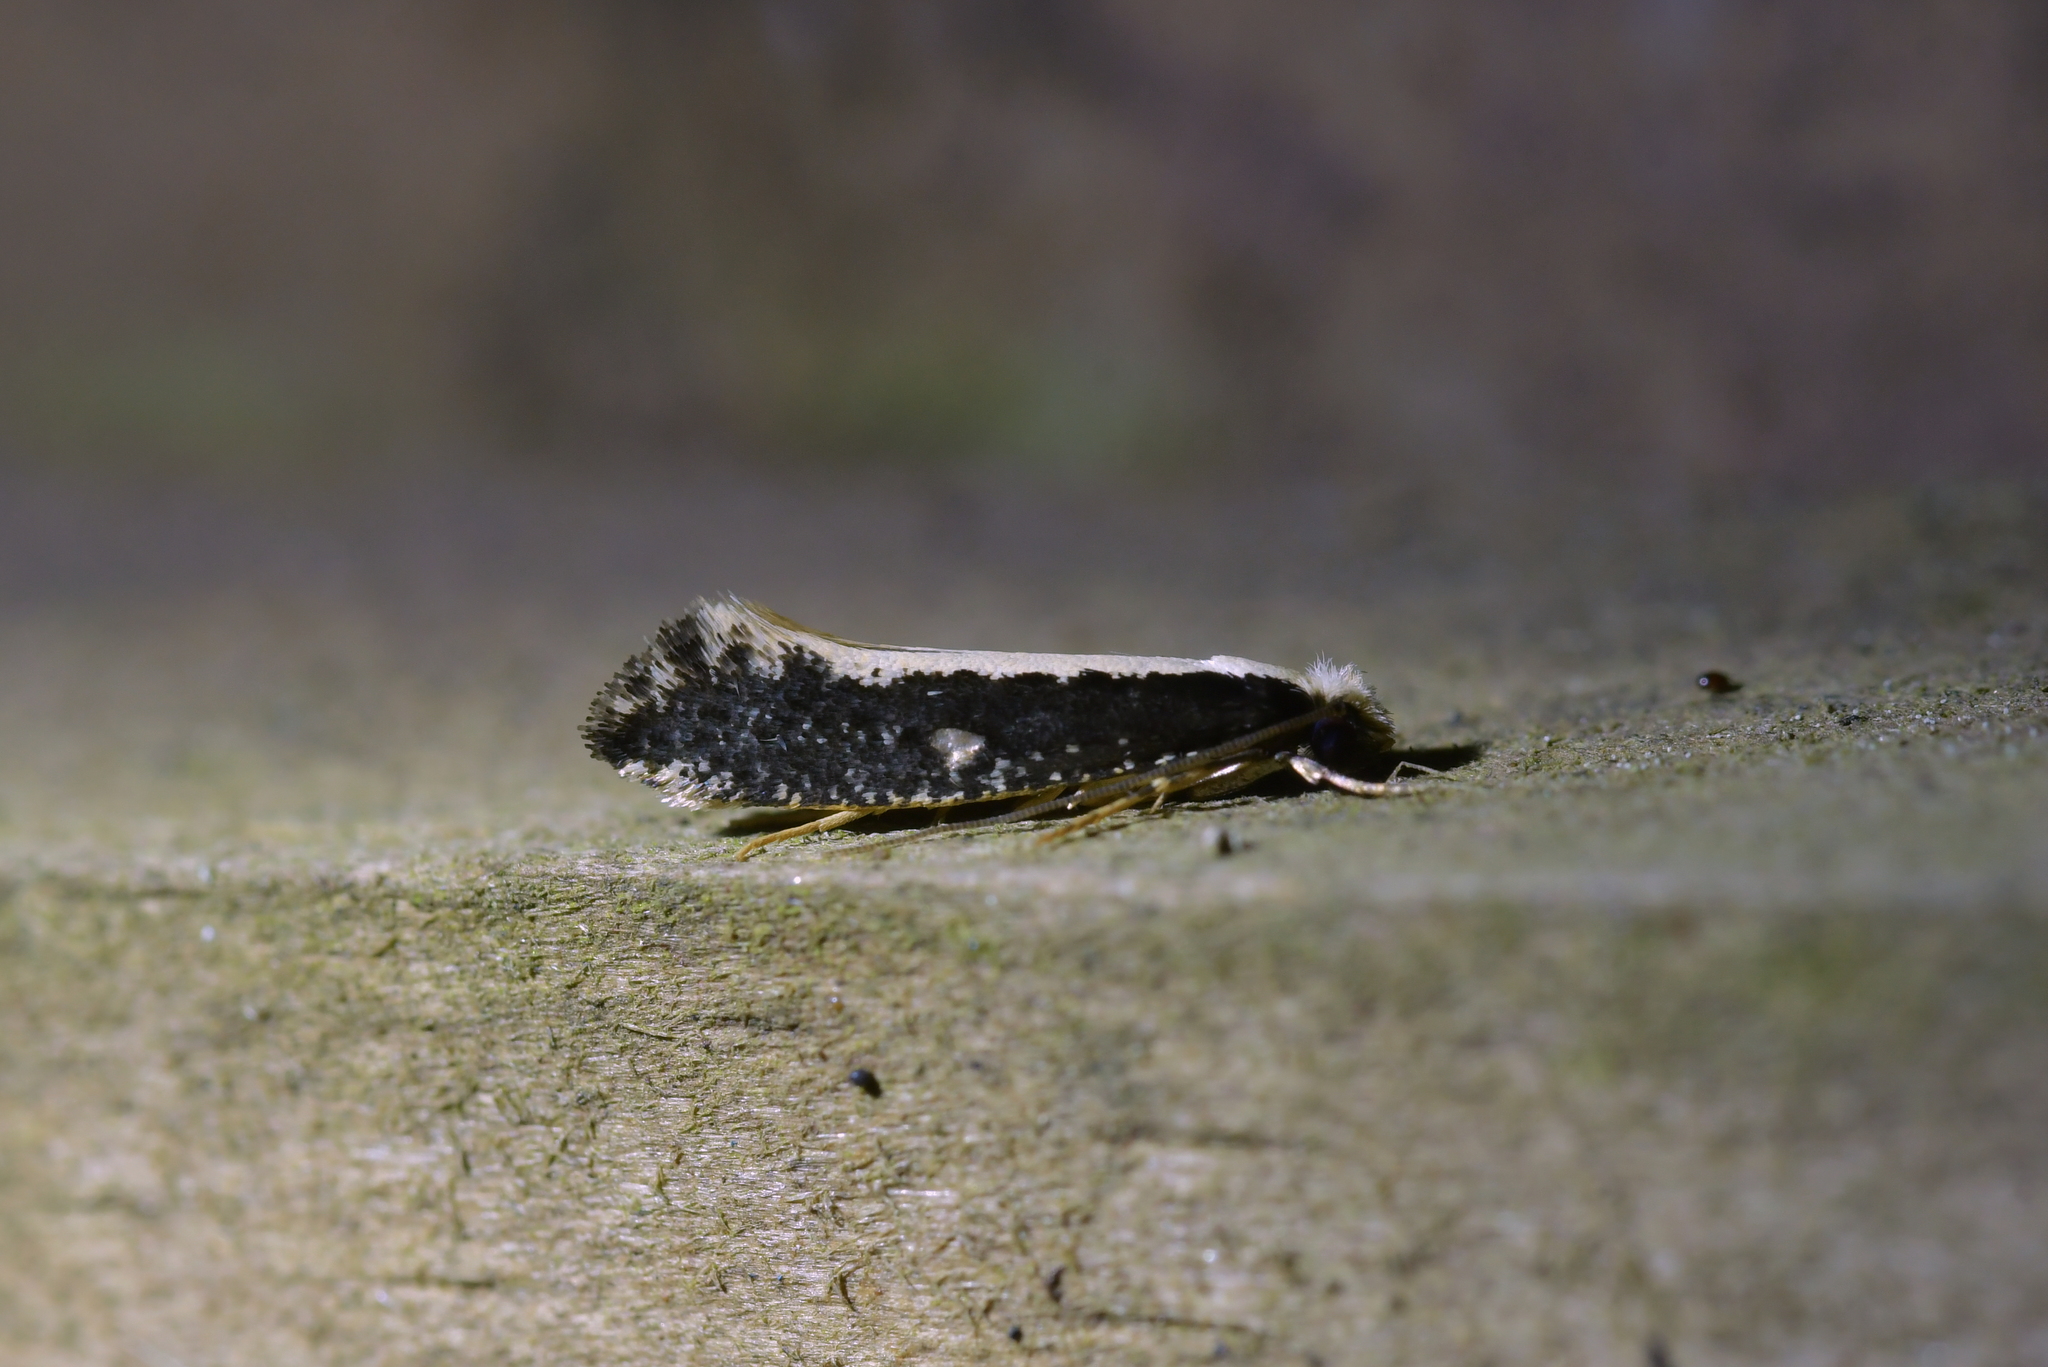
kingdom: Animalia
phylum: Arthropoda
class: Insecta
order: Lepidoptera
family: Tineidae
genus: Monopis
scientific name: Monopis ethelella
